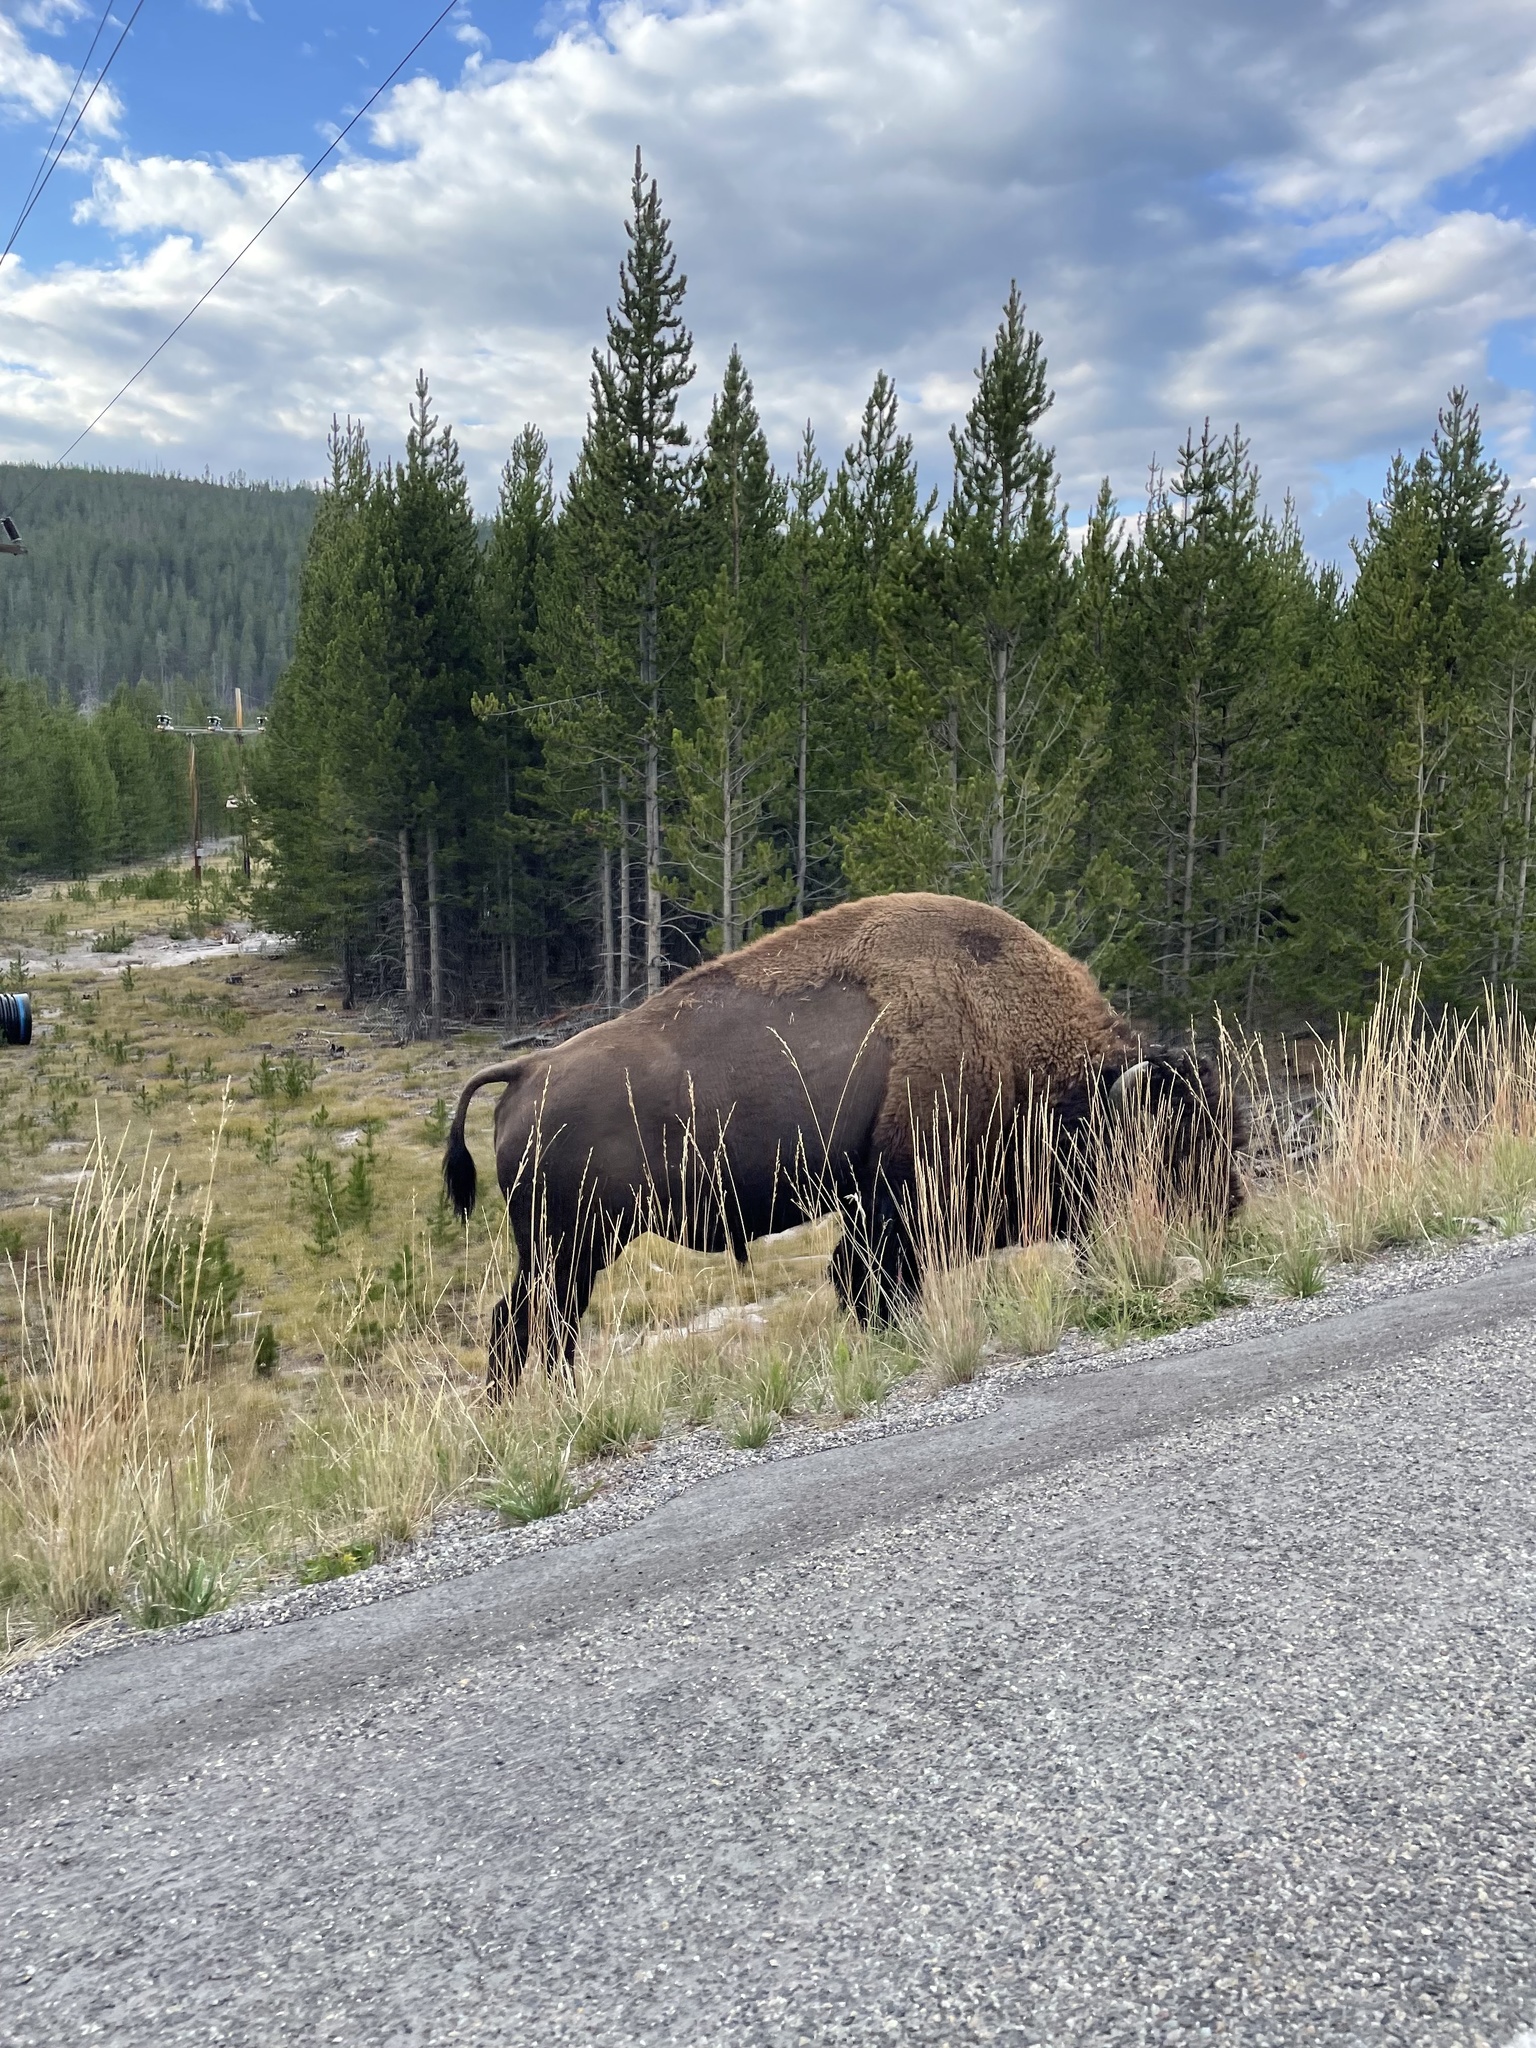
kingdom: Animalia
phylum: Chordata
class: Mammalia
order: Artiodactyla
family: Bovidae
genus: Bison
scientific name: Bison bison
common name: American bison
